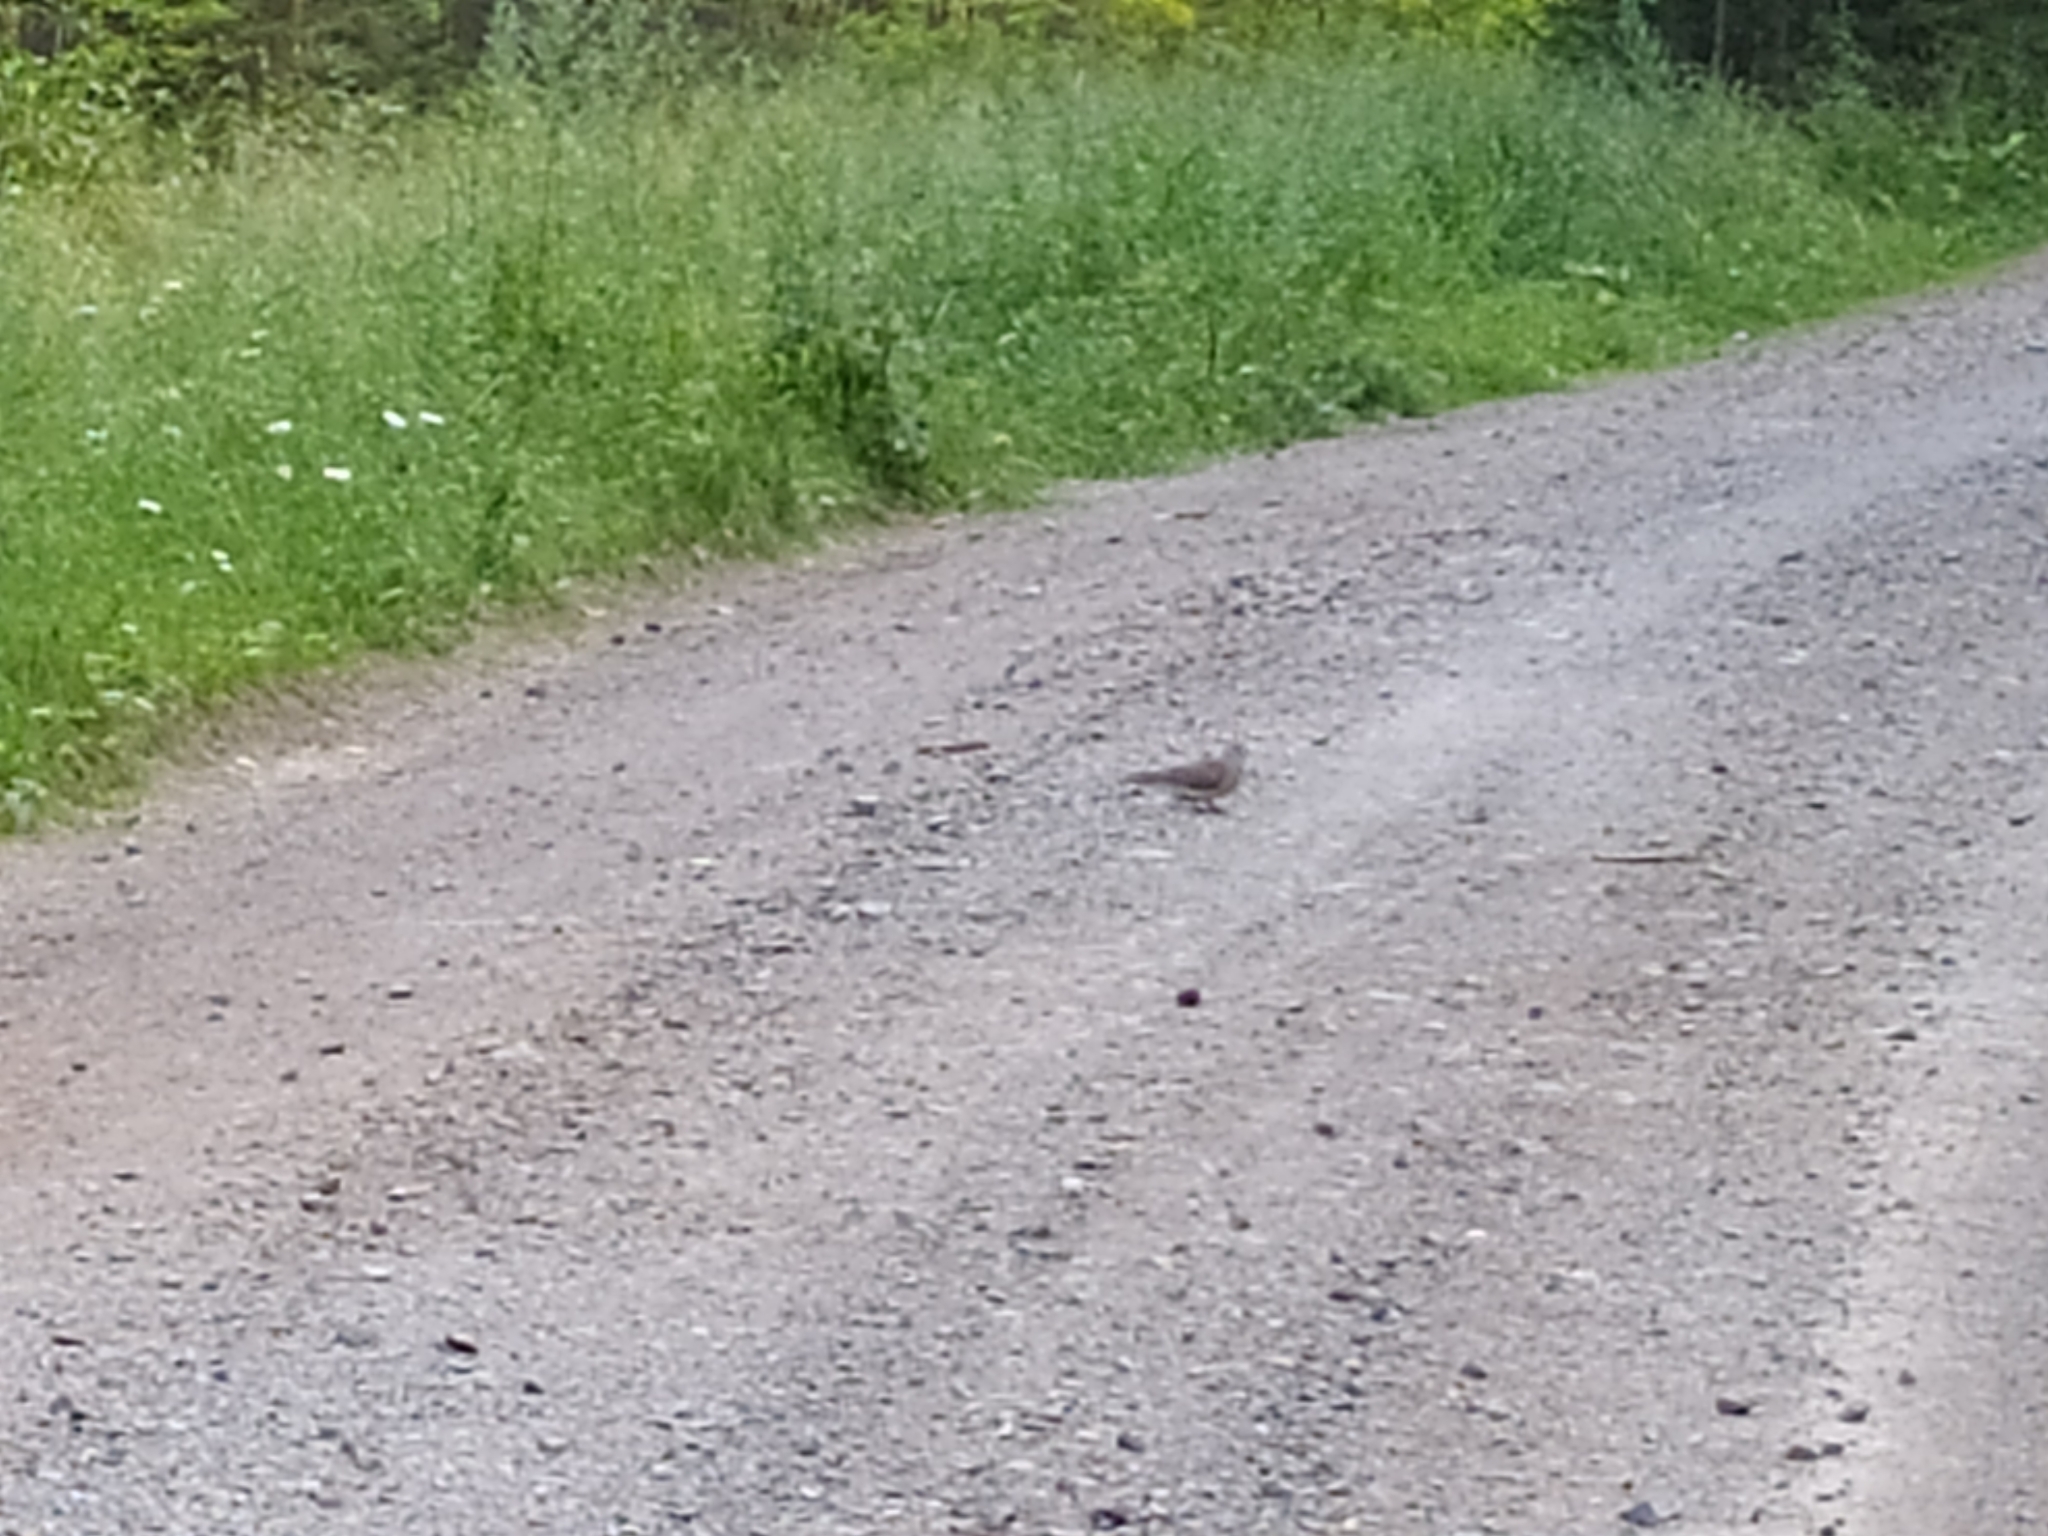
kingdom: Animalia
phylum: Chordata
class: Aves
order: Columbiformes
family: Columbidae
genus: Streptopelia
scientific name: Streptopelia orientalis
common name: Oriental turtle dove
